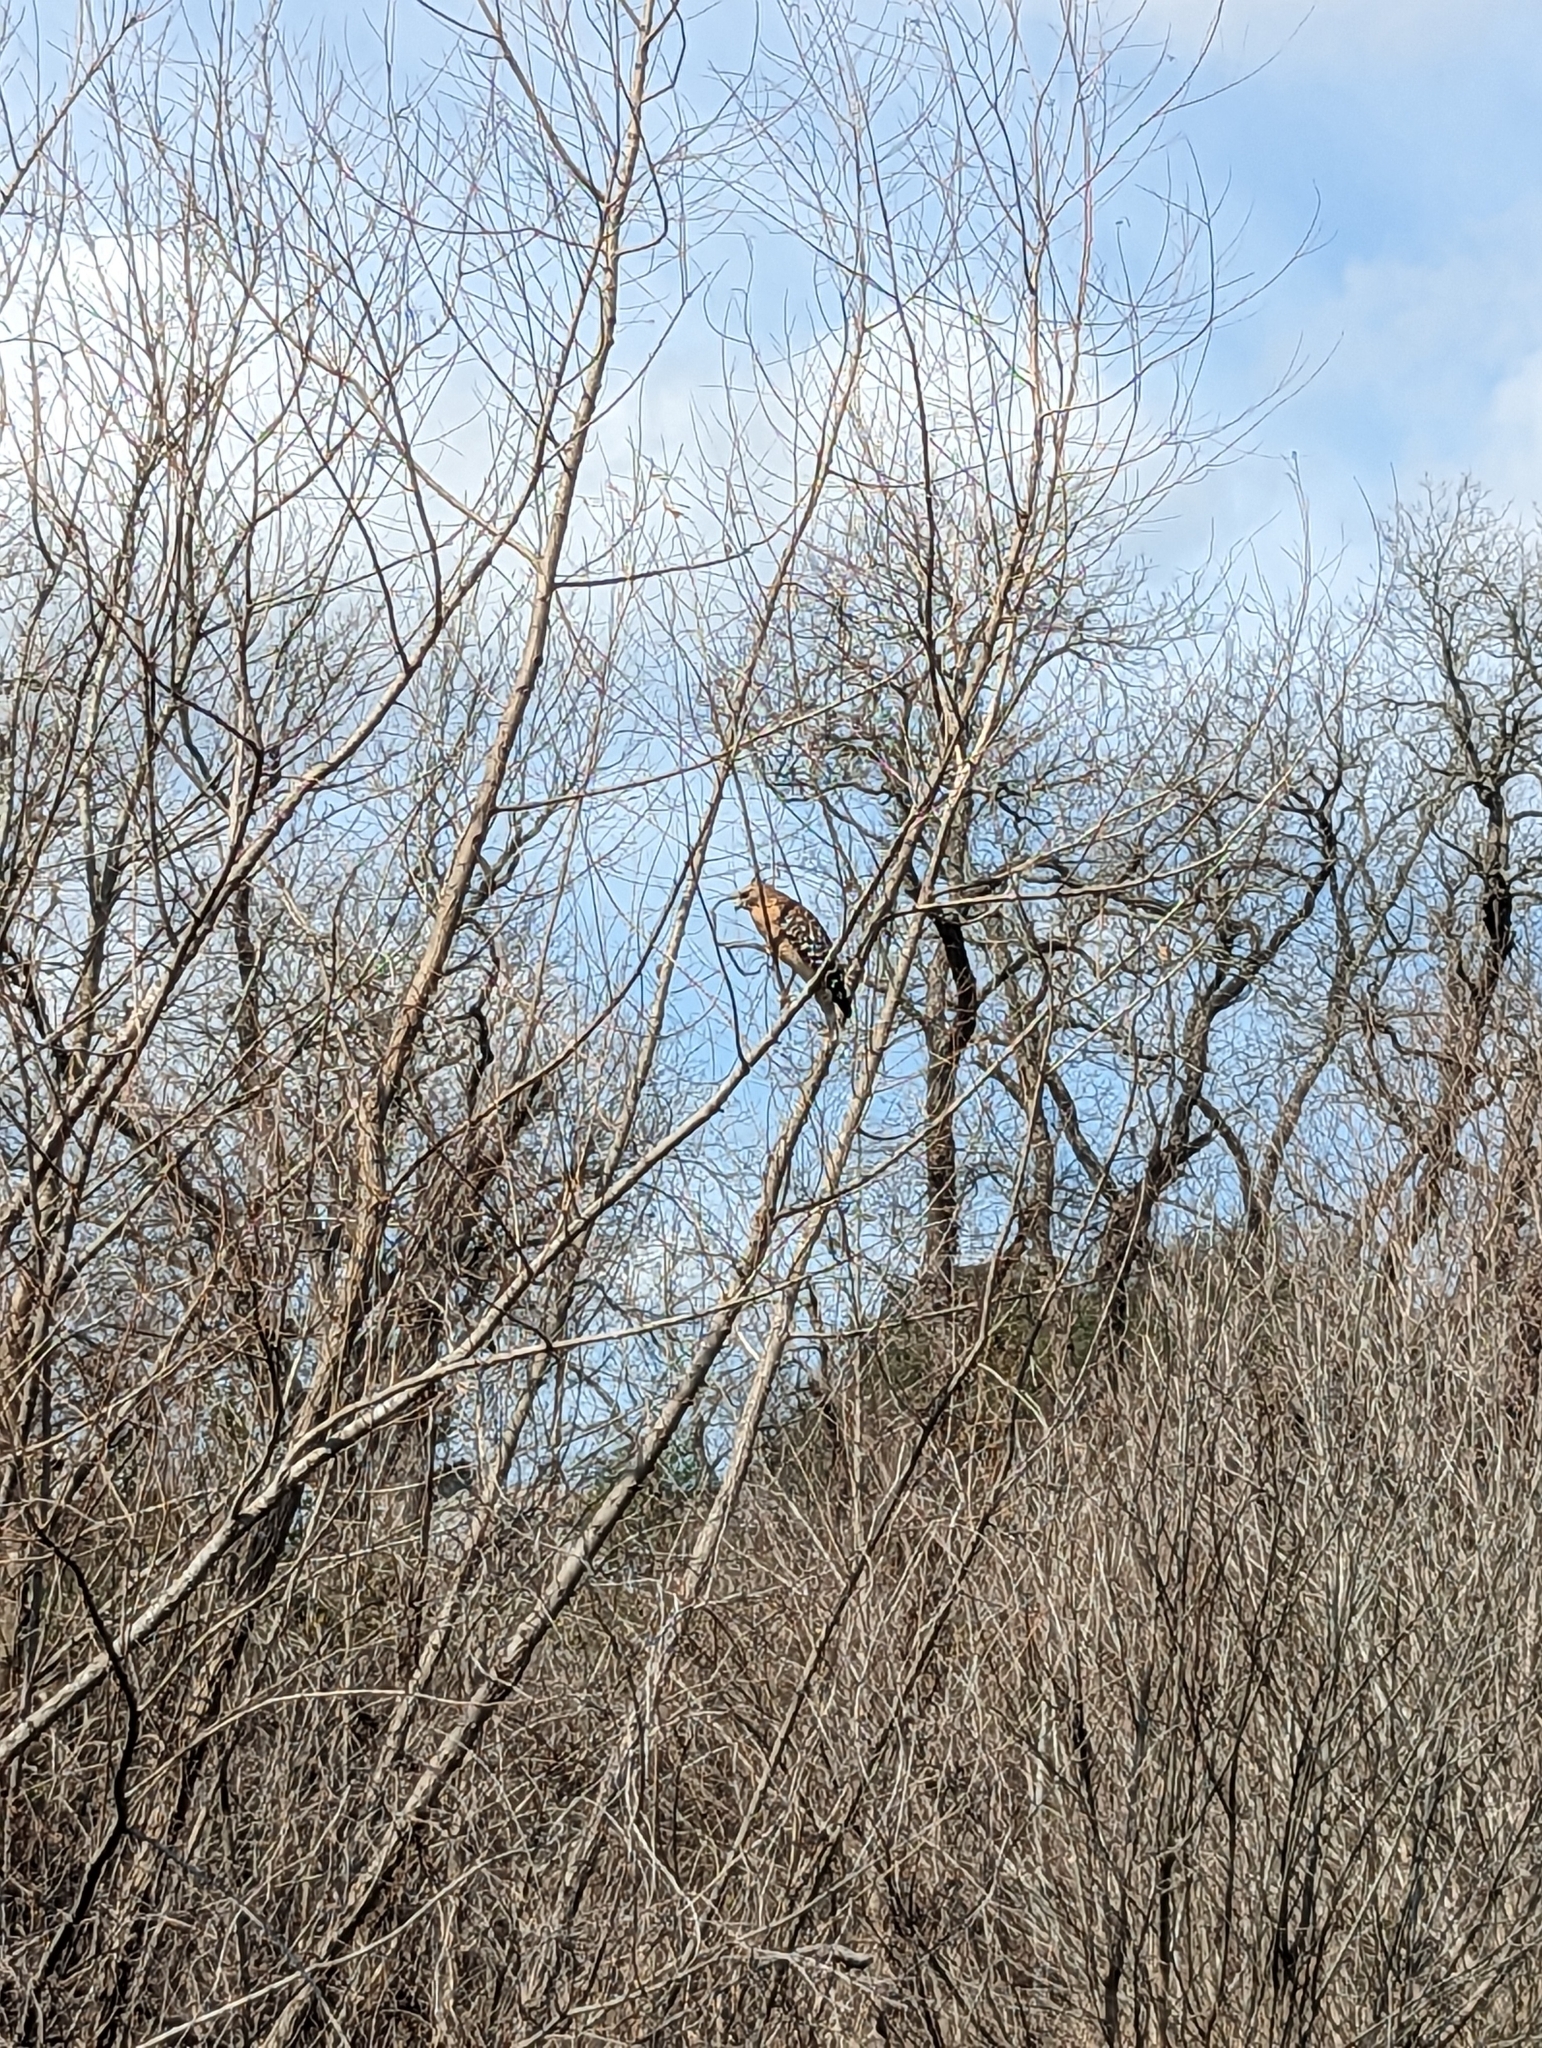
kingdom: Animalia
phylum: Chordata
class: Aves
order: Accipitriformes
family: Accipitridae
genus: Buteo
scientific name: Buteo lineatus
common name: Red-shouldered hawk
